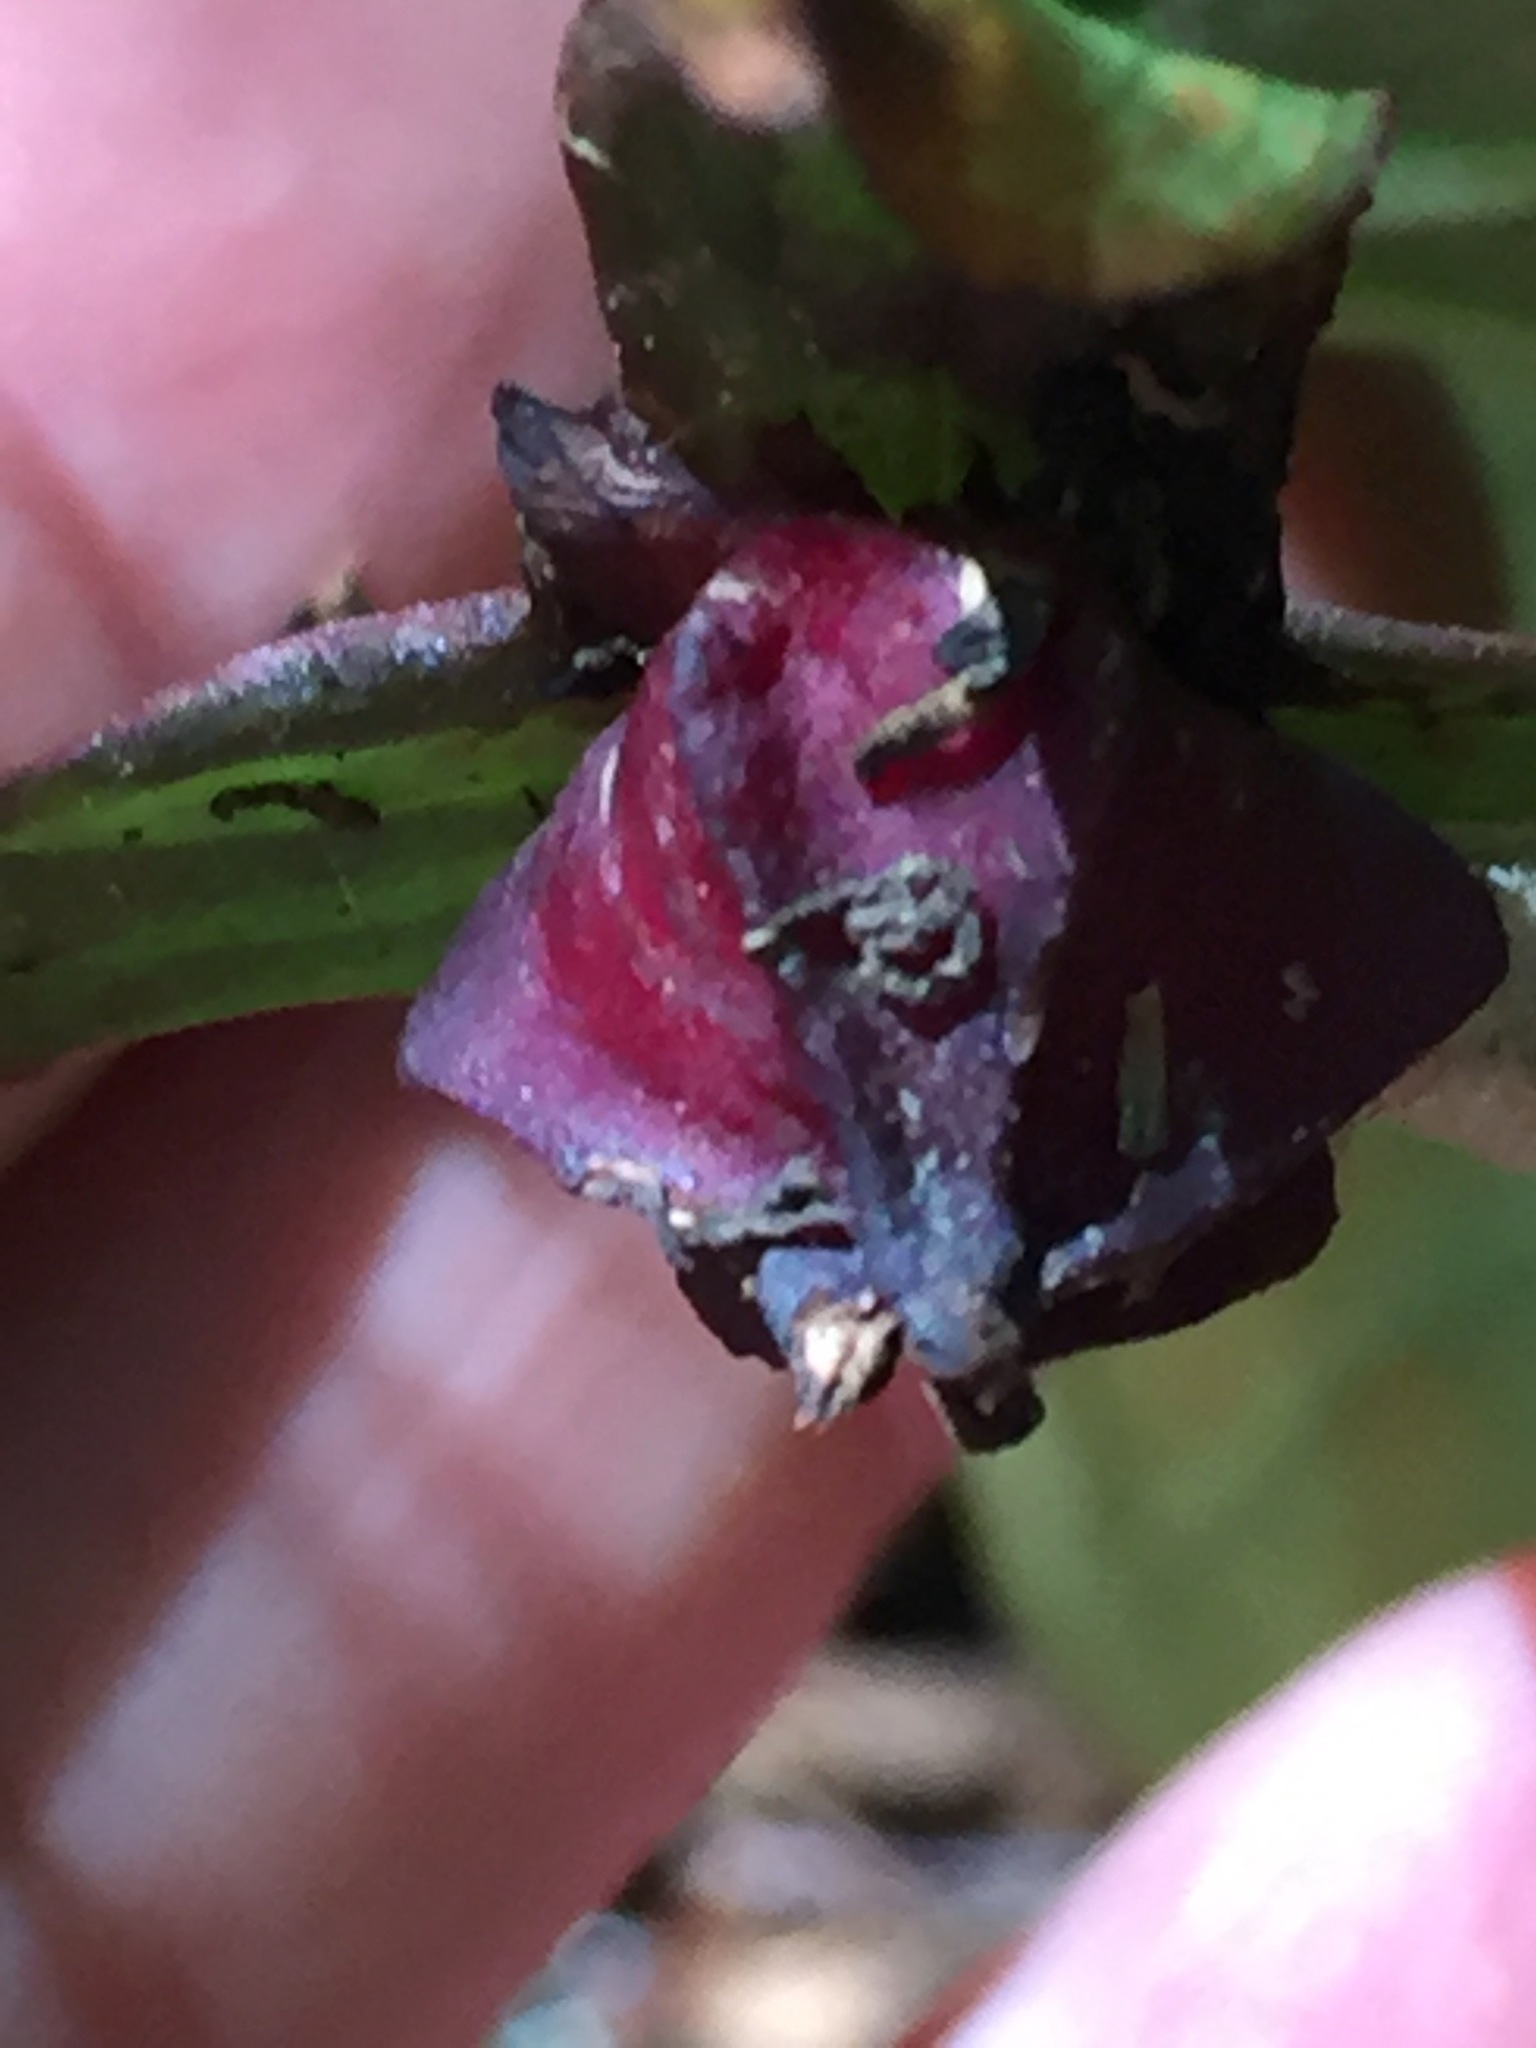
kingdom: Plantae
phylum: Tracheophyta
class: Liliopsida
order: Liliales
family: Melanthiaceae
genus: Trillium
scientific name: Trillium erectum
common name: Purple trillium
